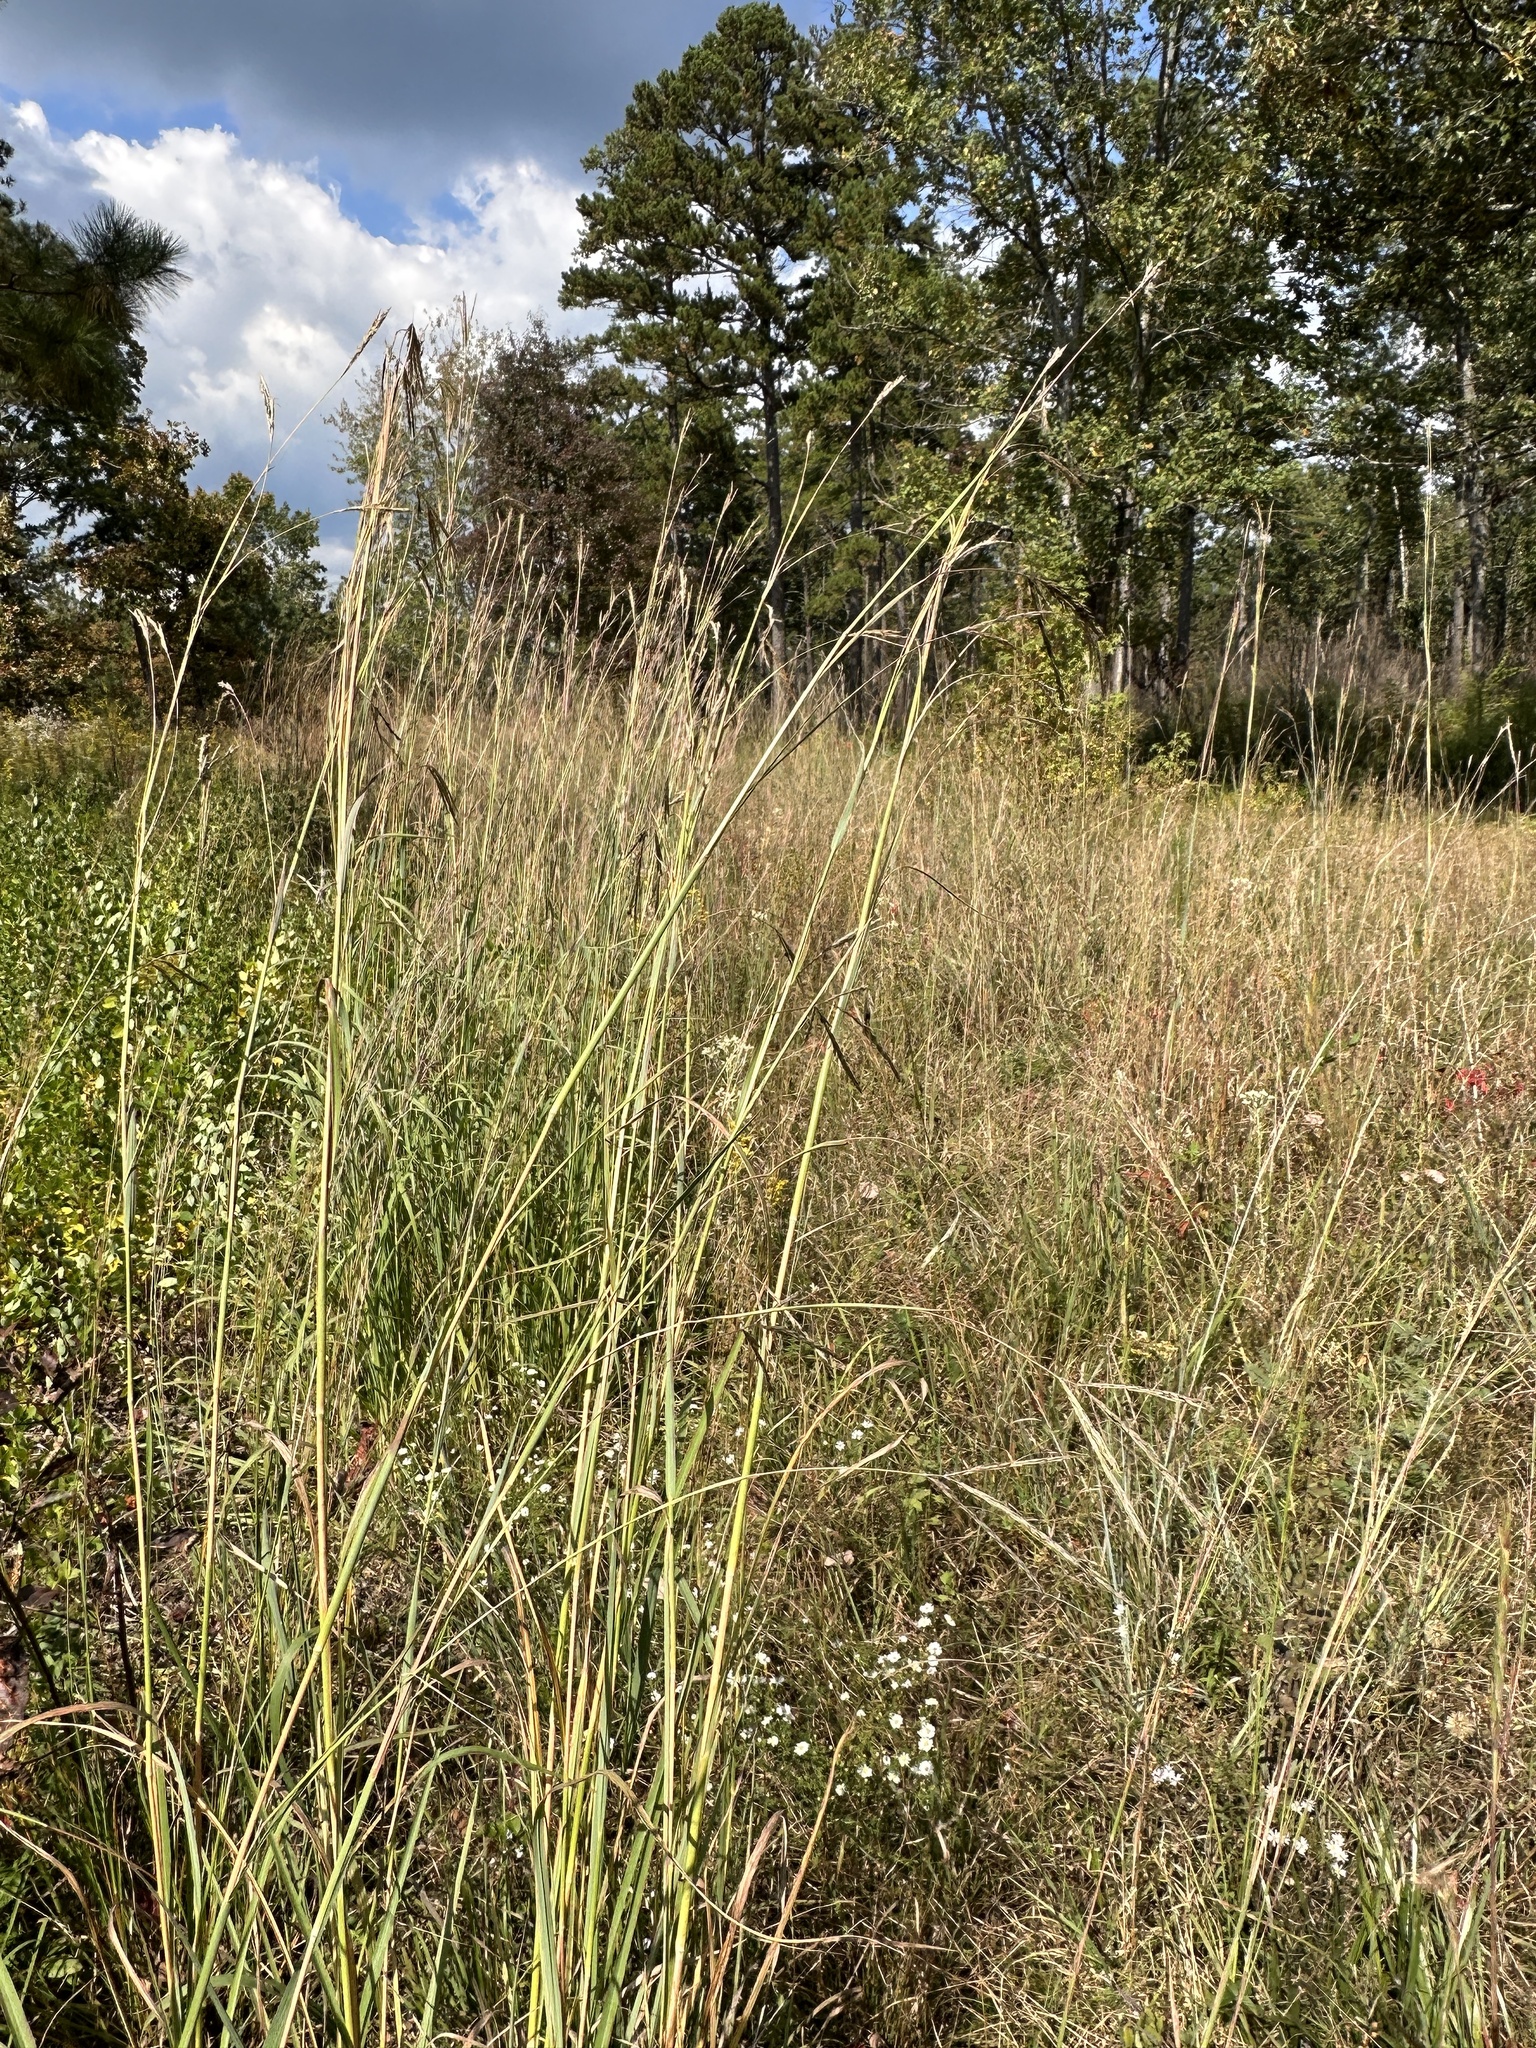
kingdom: Plantae
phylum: Tracheophyta
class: Liliopsida
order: Poales
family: Poaceae
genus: Andropogon
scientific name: Andropogon gerardi
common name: Big bluestem
